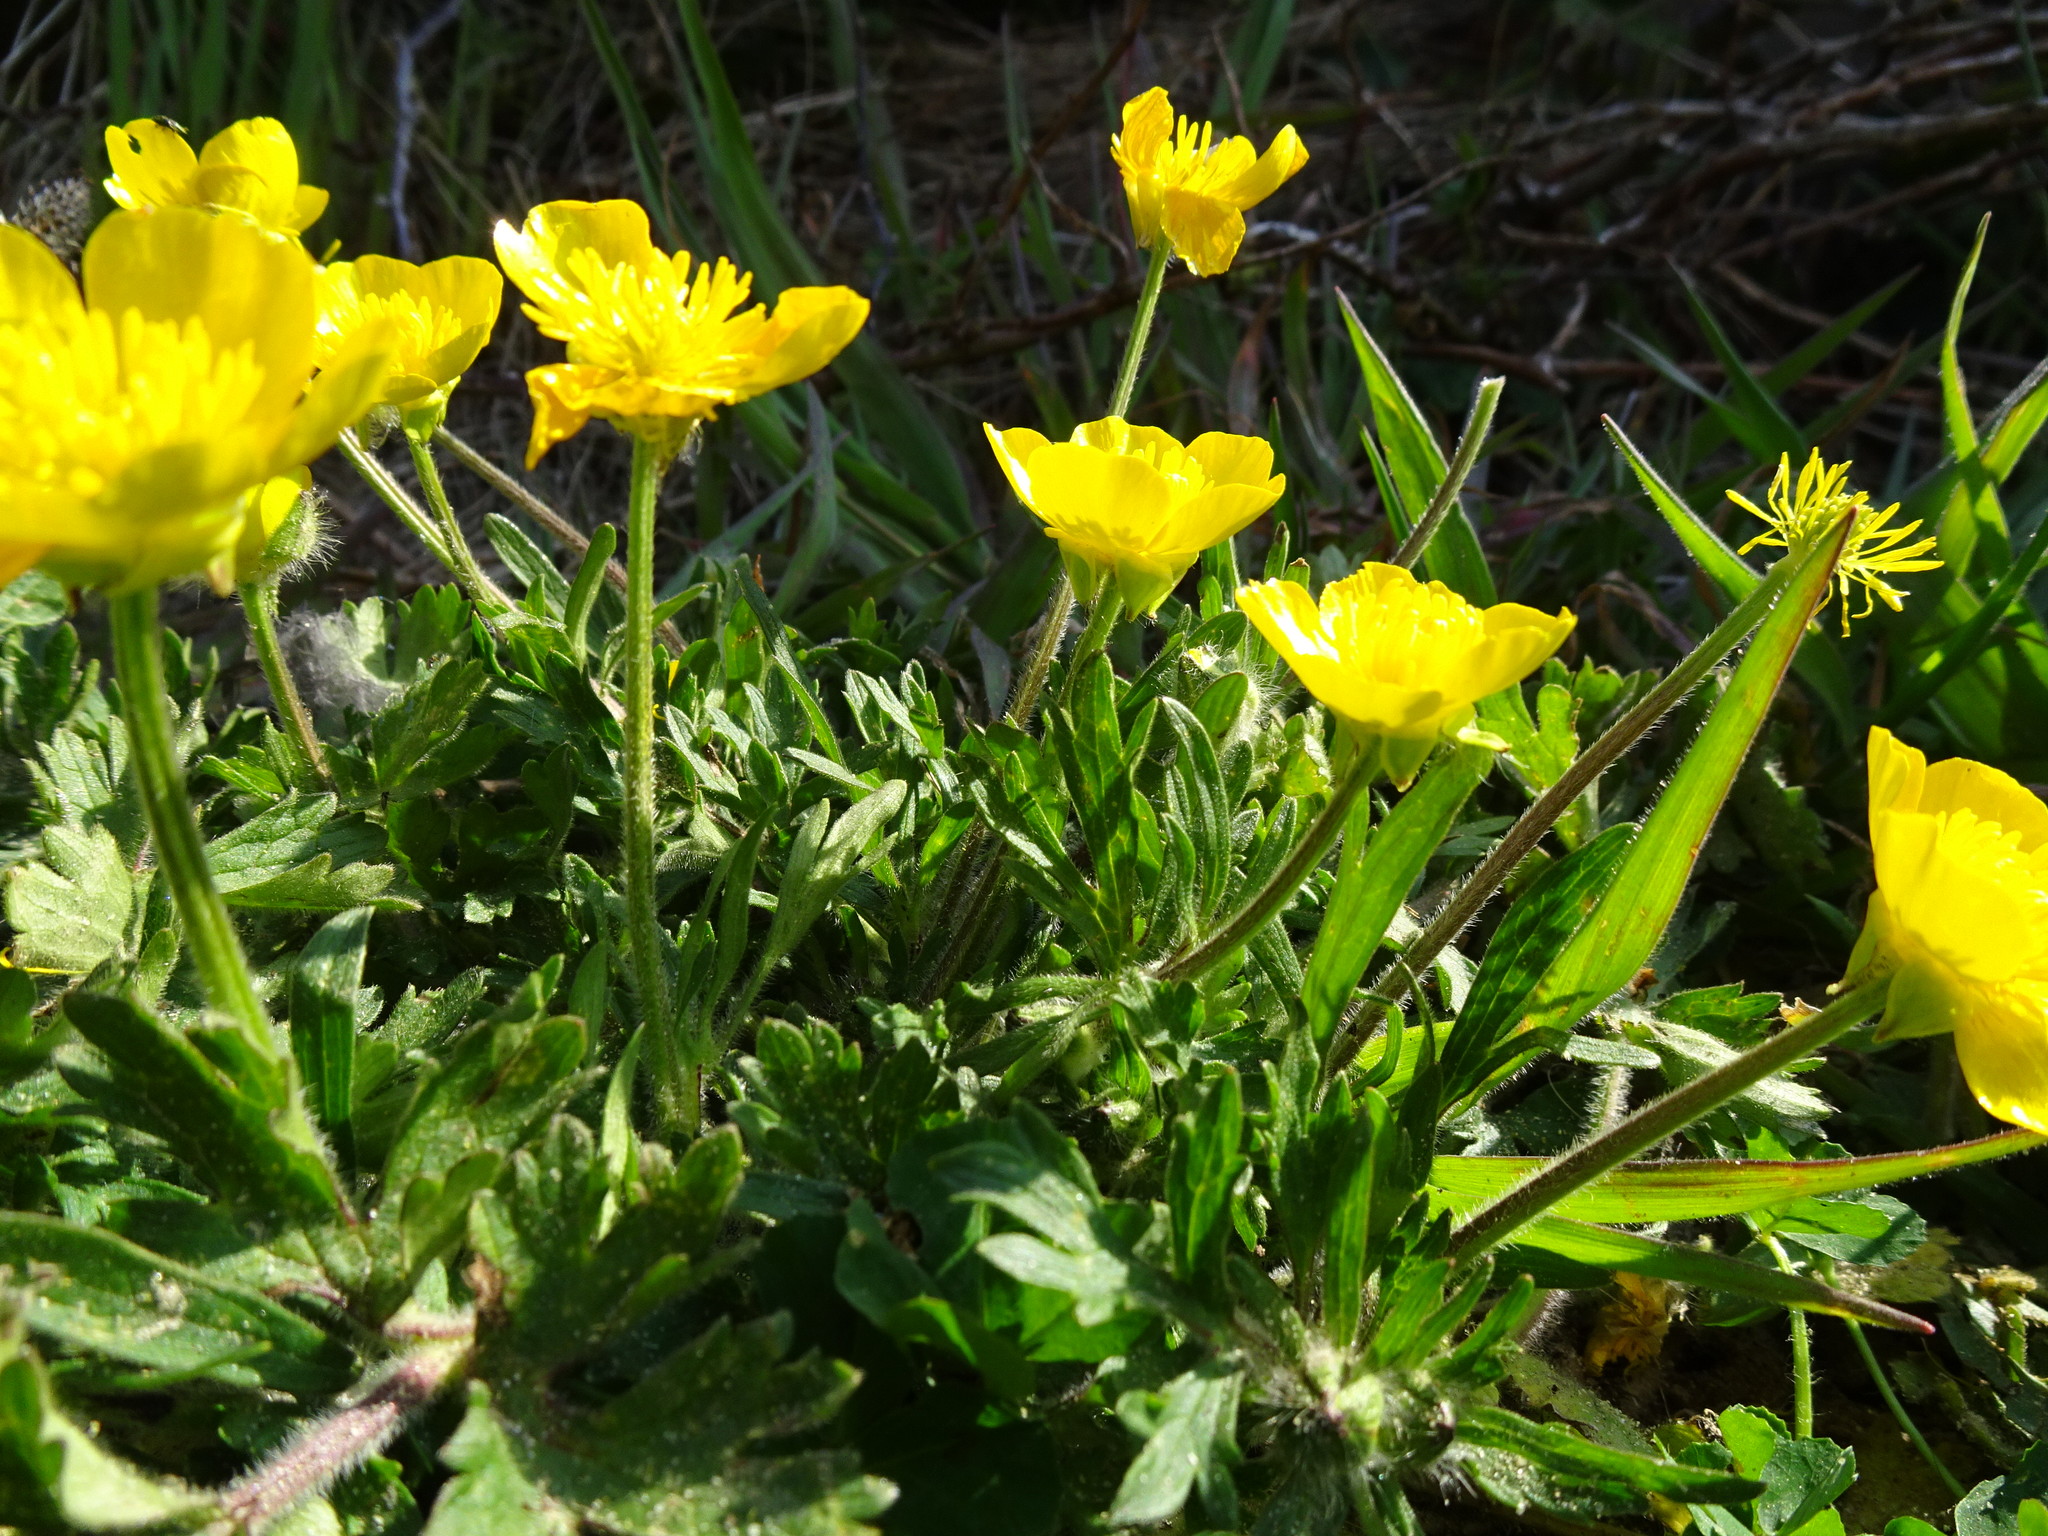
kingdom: Plantae
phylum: Tracheophyta
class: Magnoliopsida
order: Ranunculales
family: Ranunculaceae
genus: Ranunculus
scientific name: Ranunculus bulbosus
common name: Bulbous buttercup
